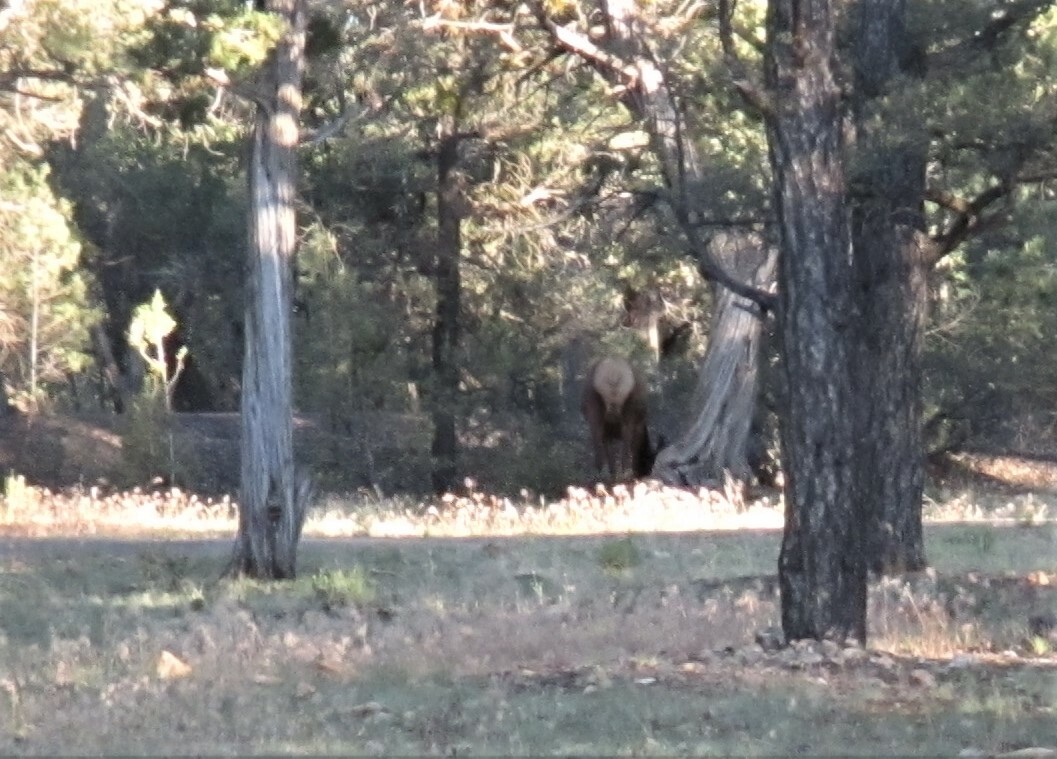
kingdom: Animalia
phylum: Chordata
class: Mammalia
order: Artiodactyla
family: Cervidae
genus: Cervus
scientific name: Cervus elaphus
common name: Red deer
